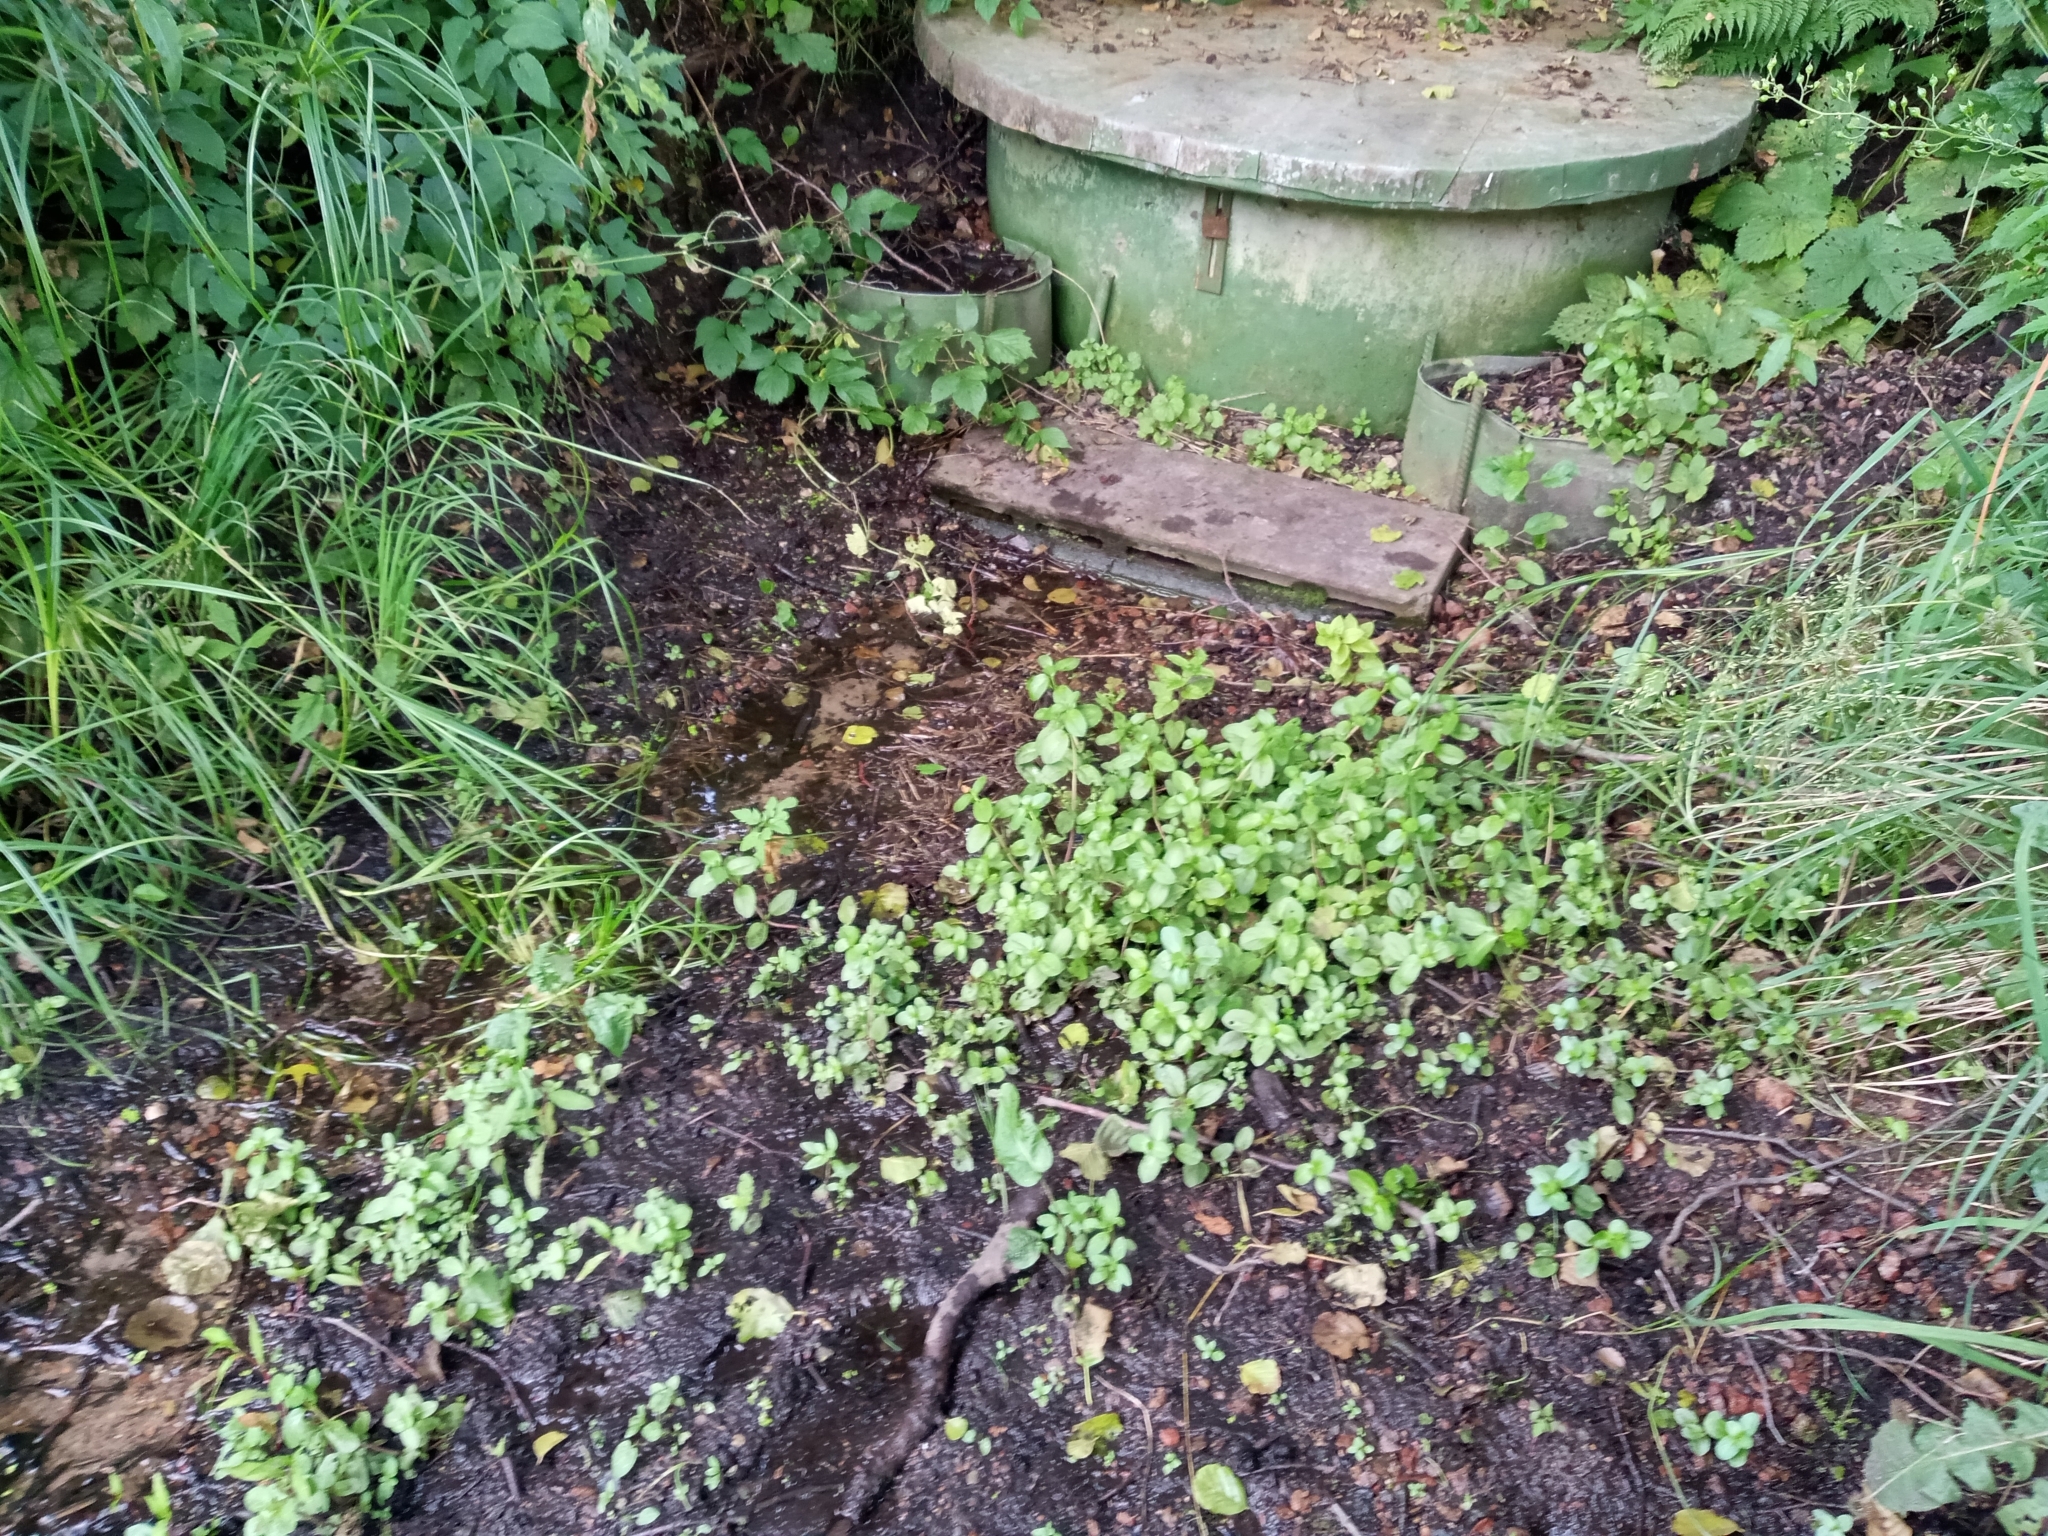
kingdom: Plantae
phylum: Tracheophyta
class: Magnoliopsida
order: Lamiales
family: Plantaginaceae
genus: Veronica
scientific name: Veronica beccabunga
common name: Brooklime
